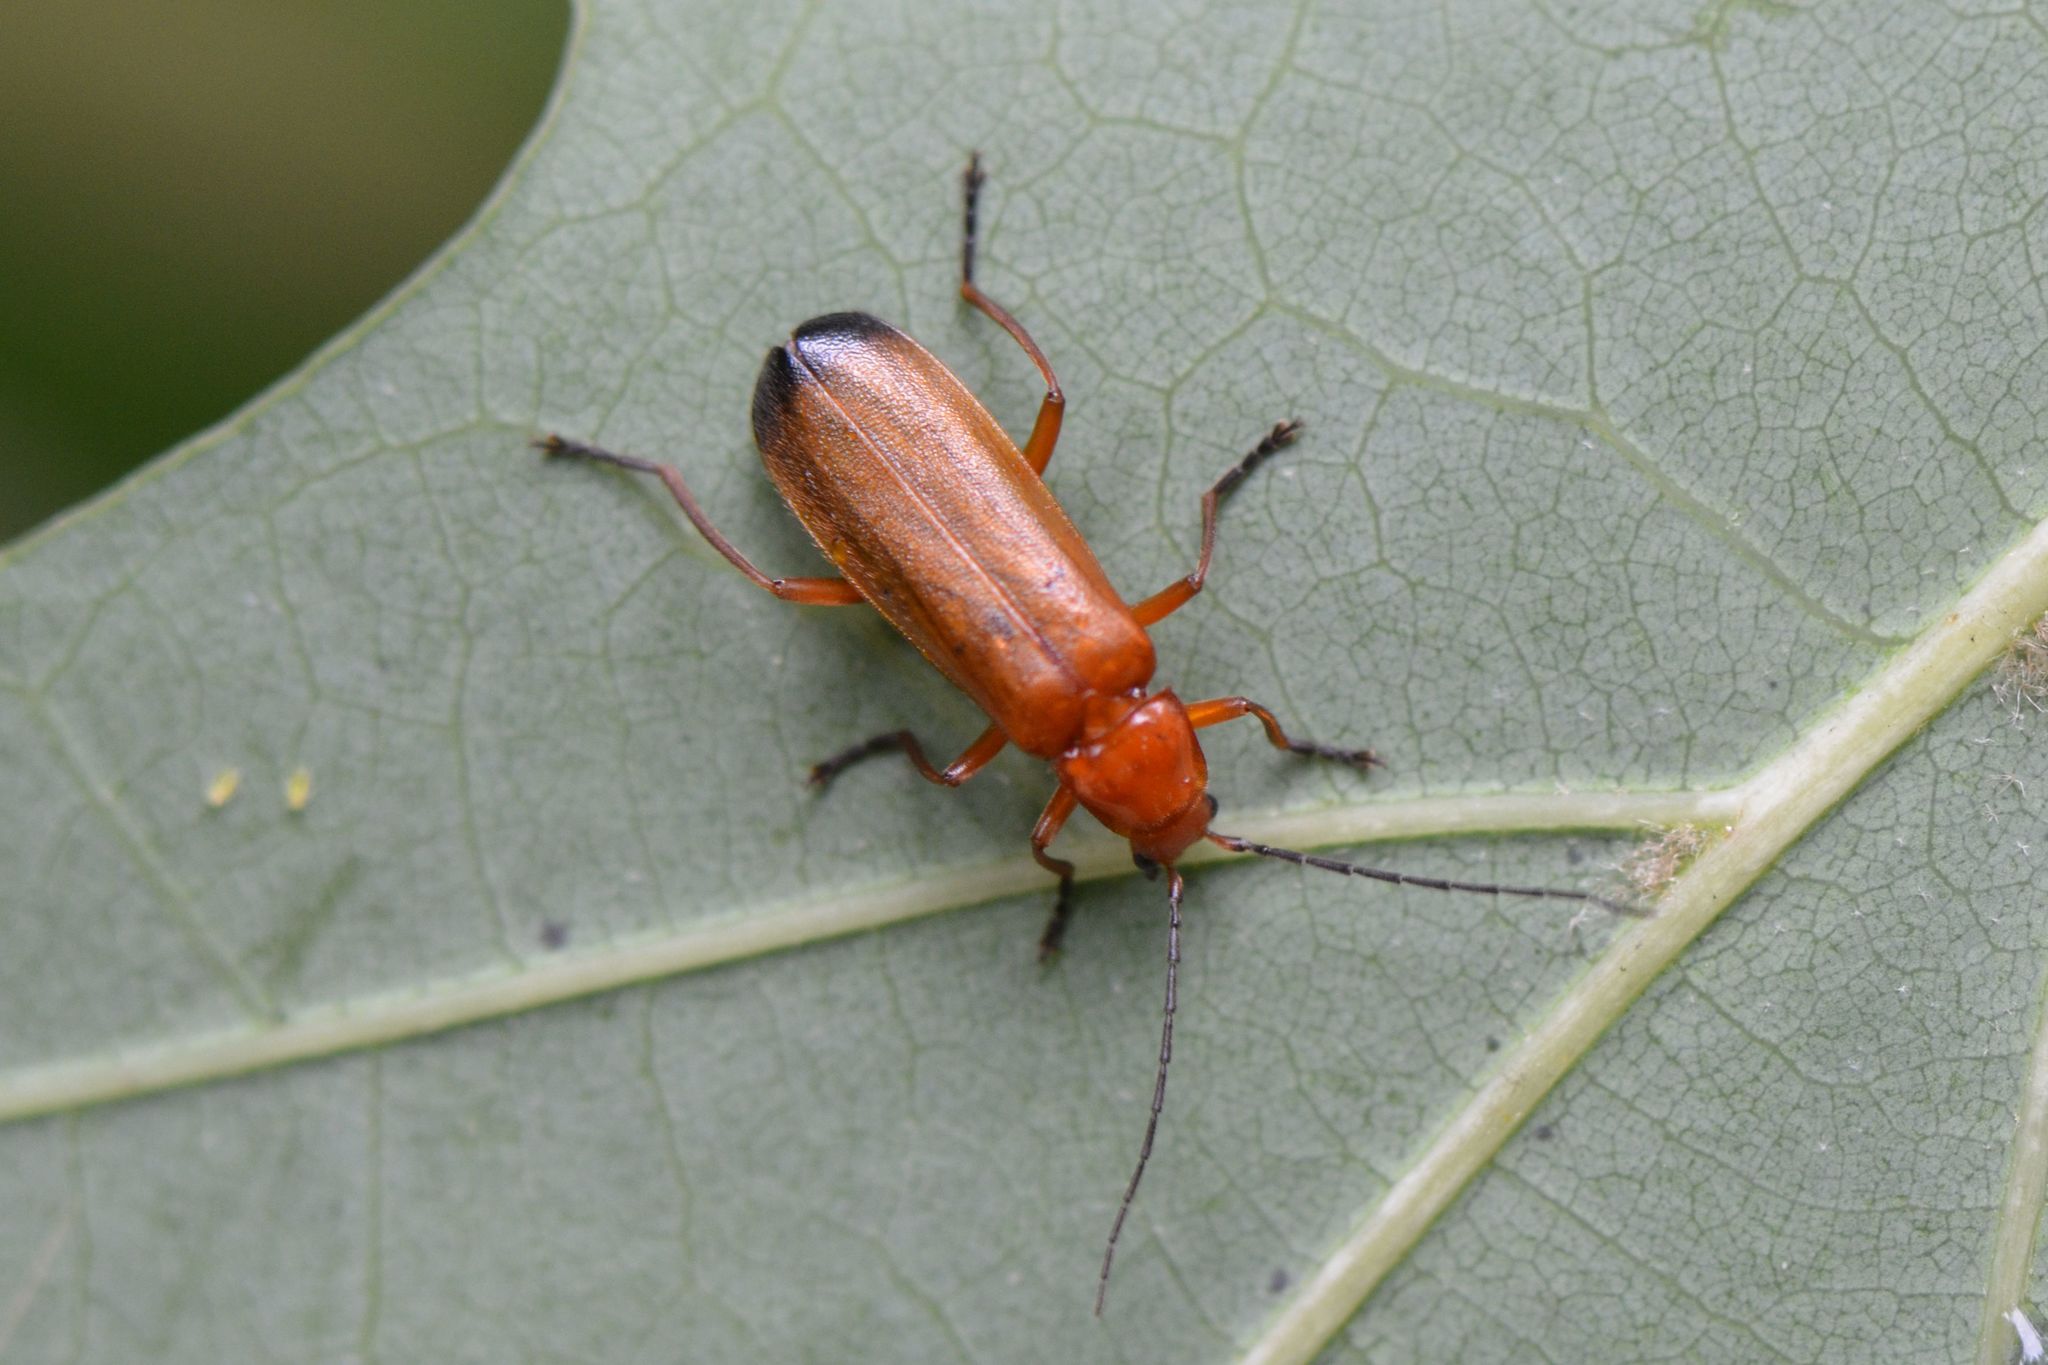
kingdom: Animalia
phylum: Arthropoda
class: Insecta
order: Coleoptera
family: Cantharidae
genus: Rhagonycha
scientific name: Rhagonycha fulva
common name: Common red soldier beetle
